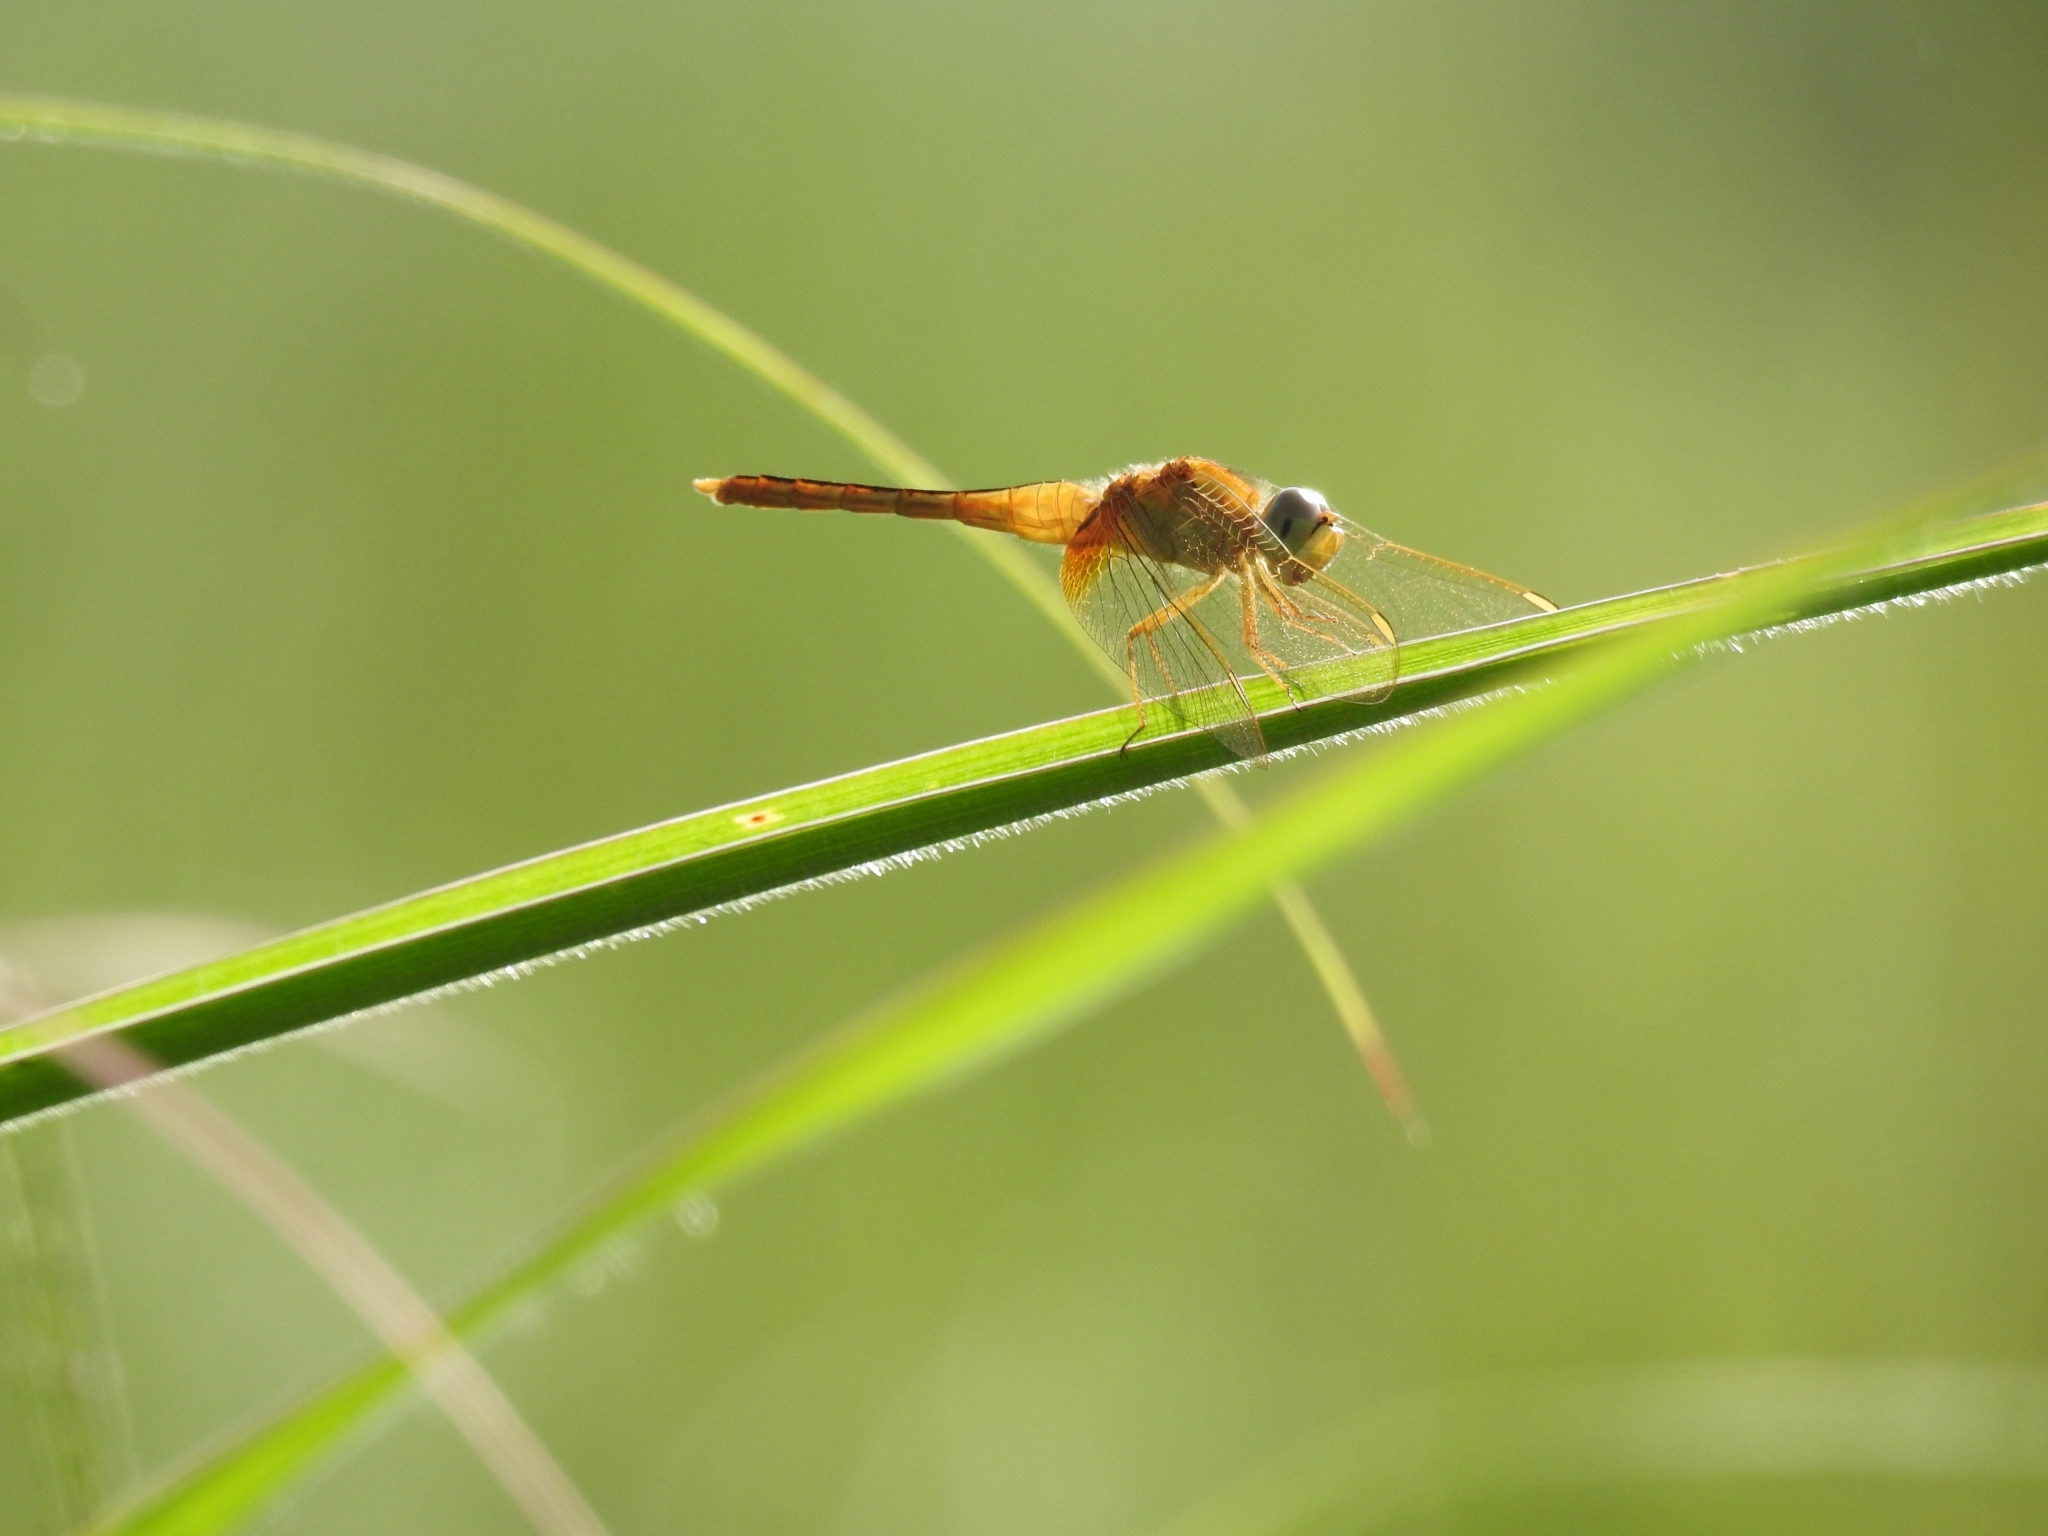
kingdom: Animalia
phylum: Arthropoda
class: Insecta
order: Odonata
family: Libellulidae
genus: Crocothemis
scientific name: Crocothemis servilia
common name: Scarlet skimmer
